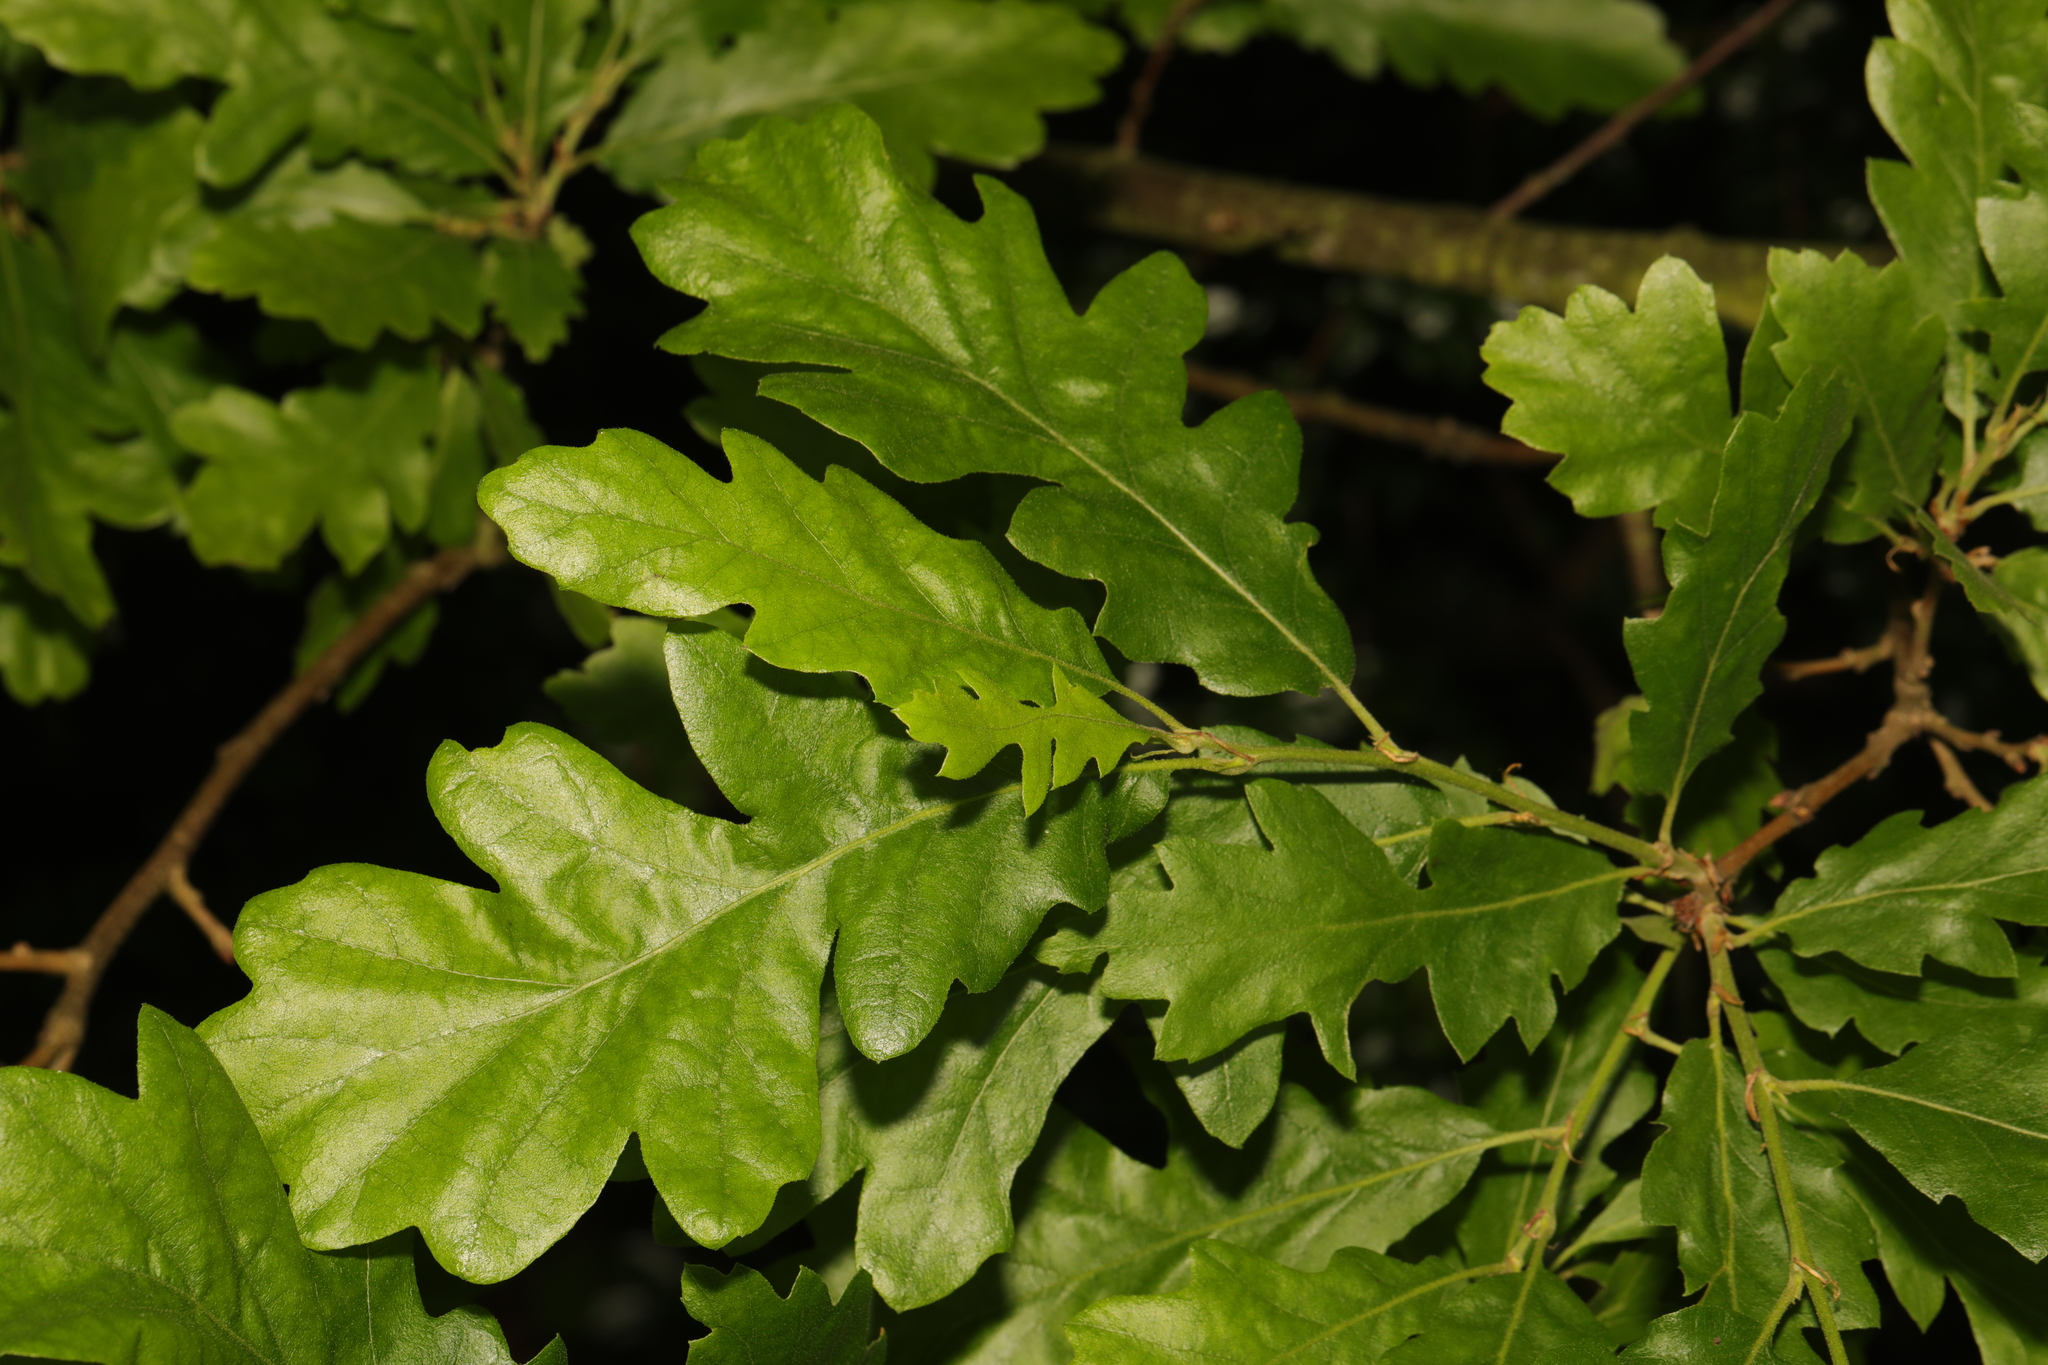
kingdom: Plantae
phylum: Tracheophyta
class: Magnoliopsida
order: Fagales
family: Fagaceae
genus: Quercus
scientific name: Quercus robur
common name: Pedunculate oak
